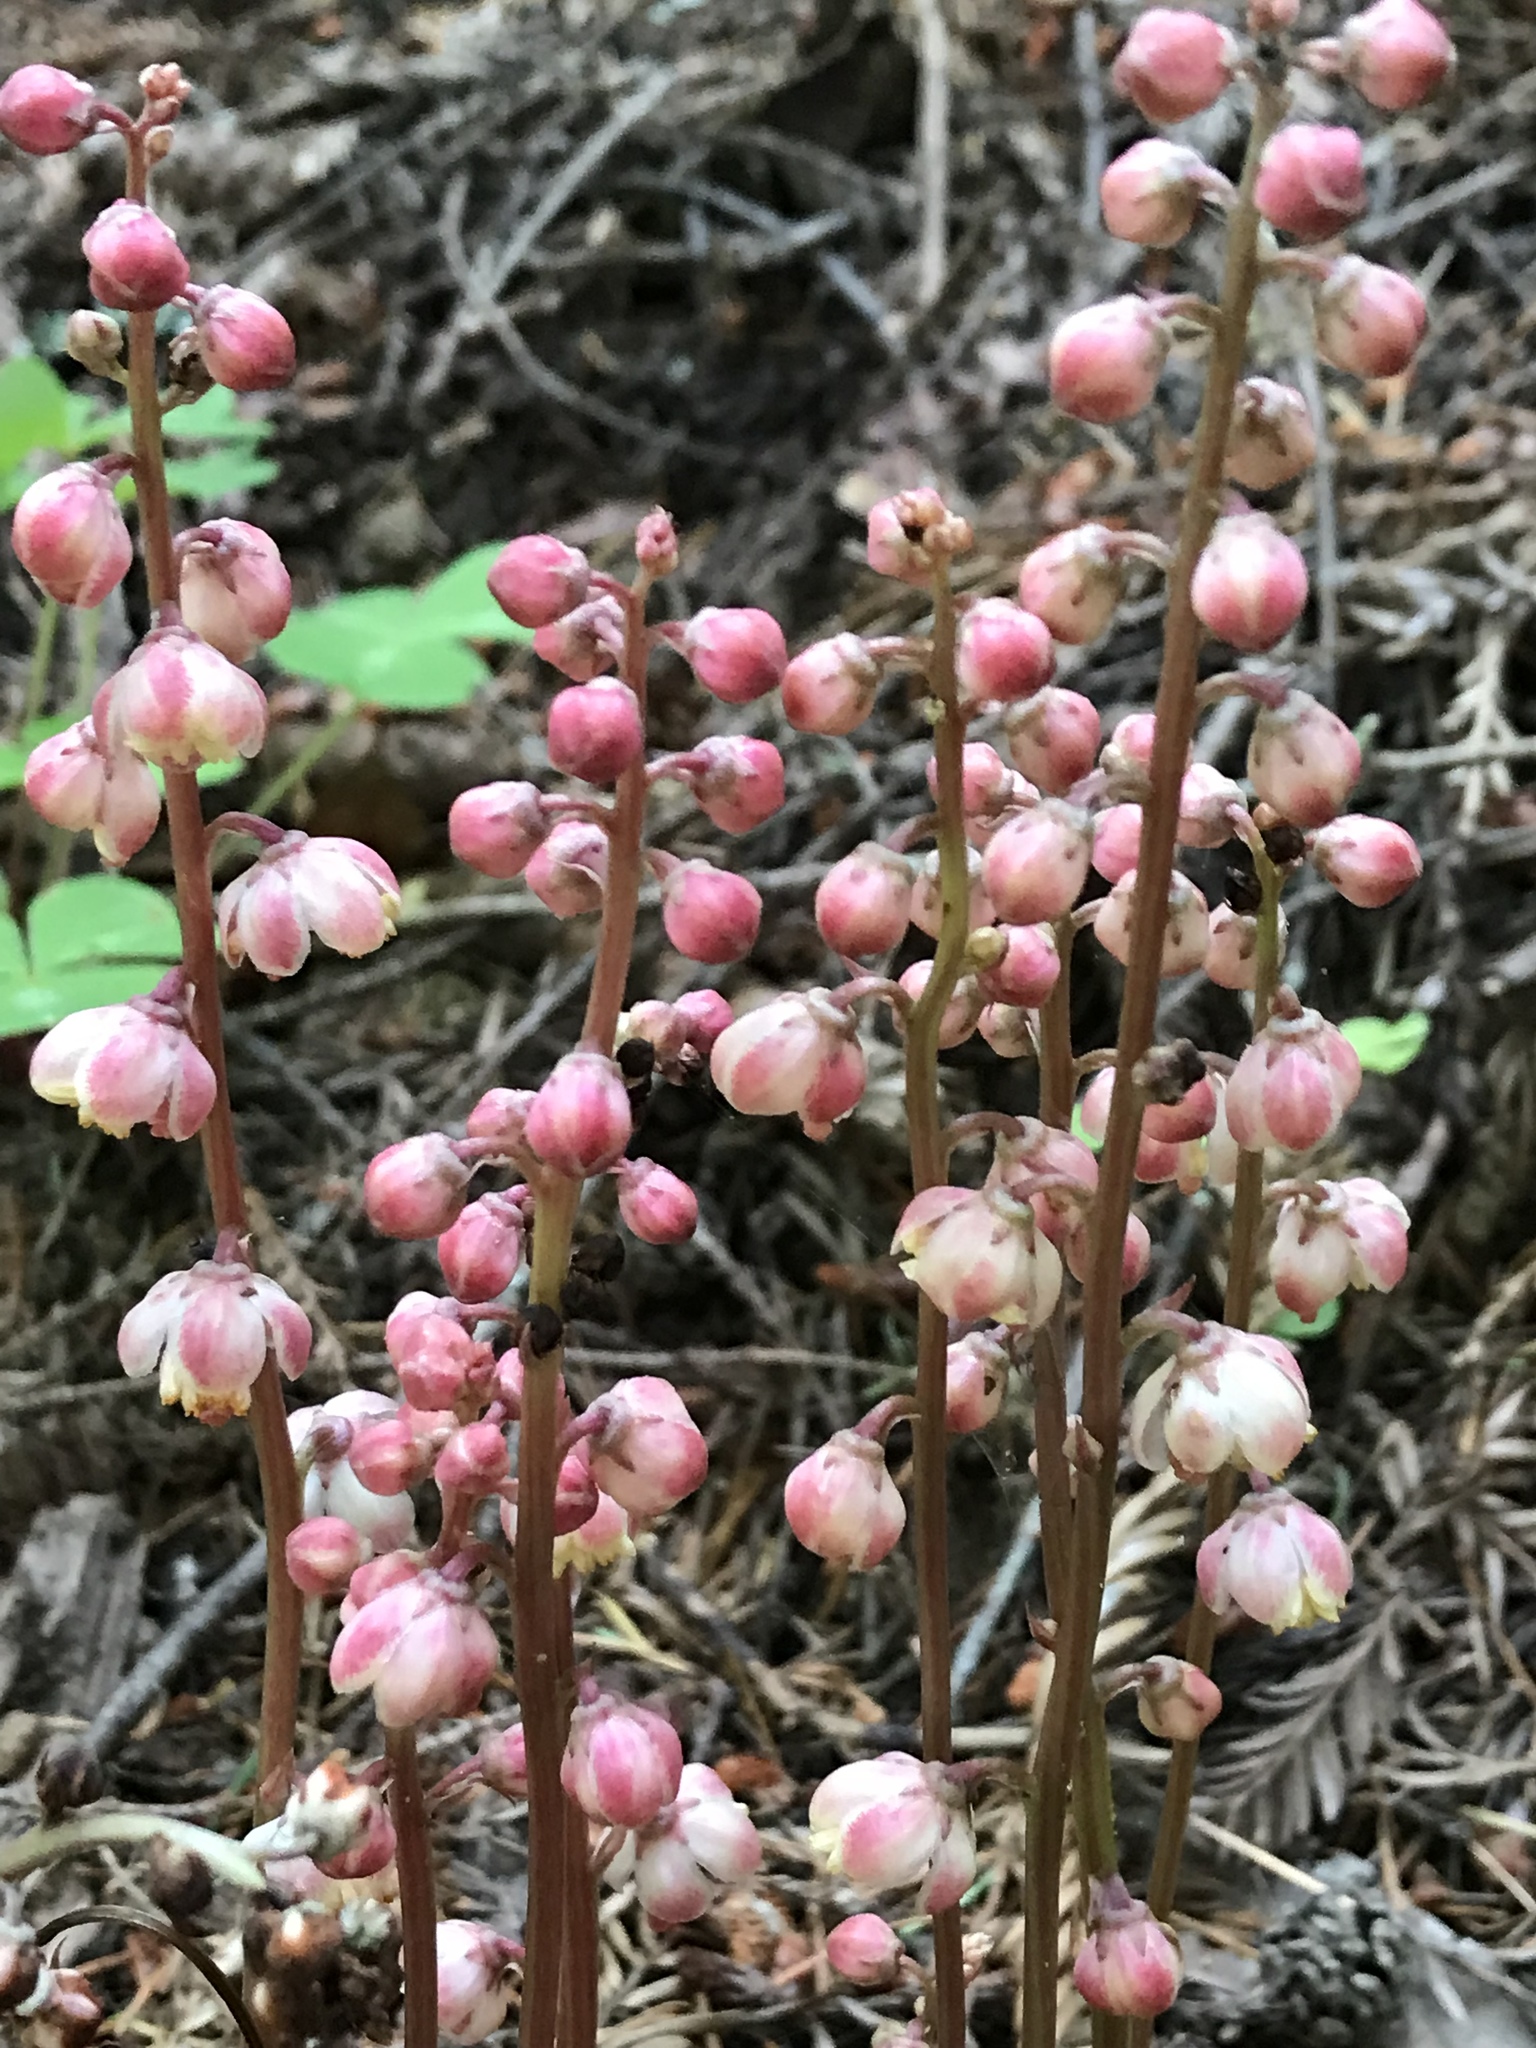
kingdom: Plantae
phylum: Tracheophyta
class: Magnoliopsida
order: Ericales
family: Ericaceae
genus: Pyrola
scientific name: Pyrola aphylla
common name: Leafless wintergreen
